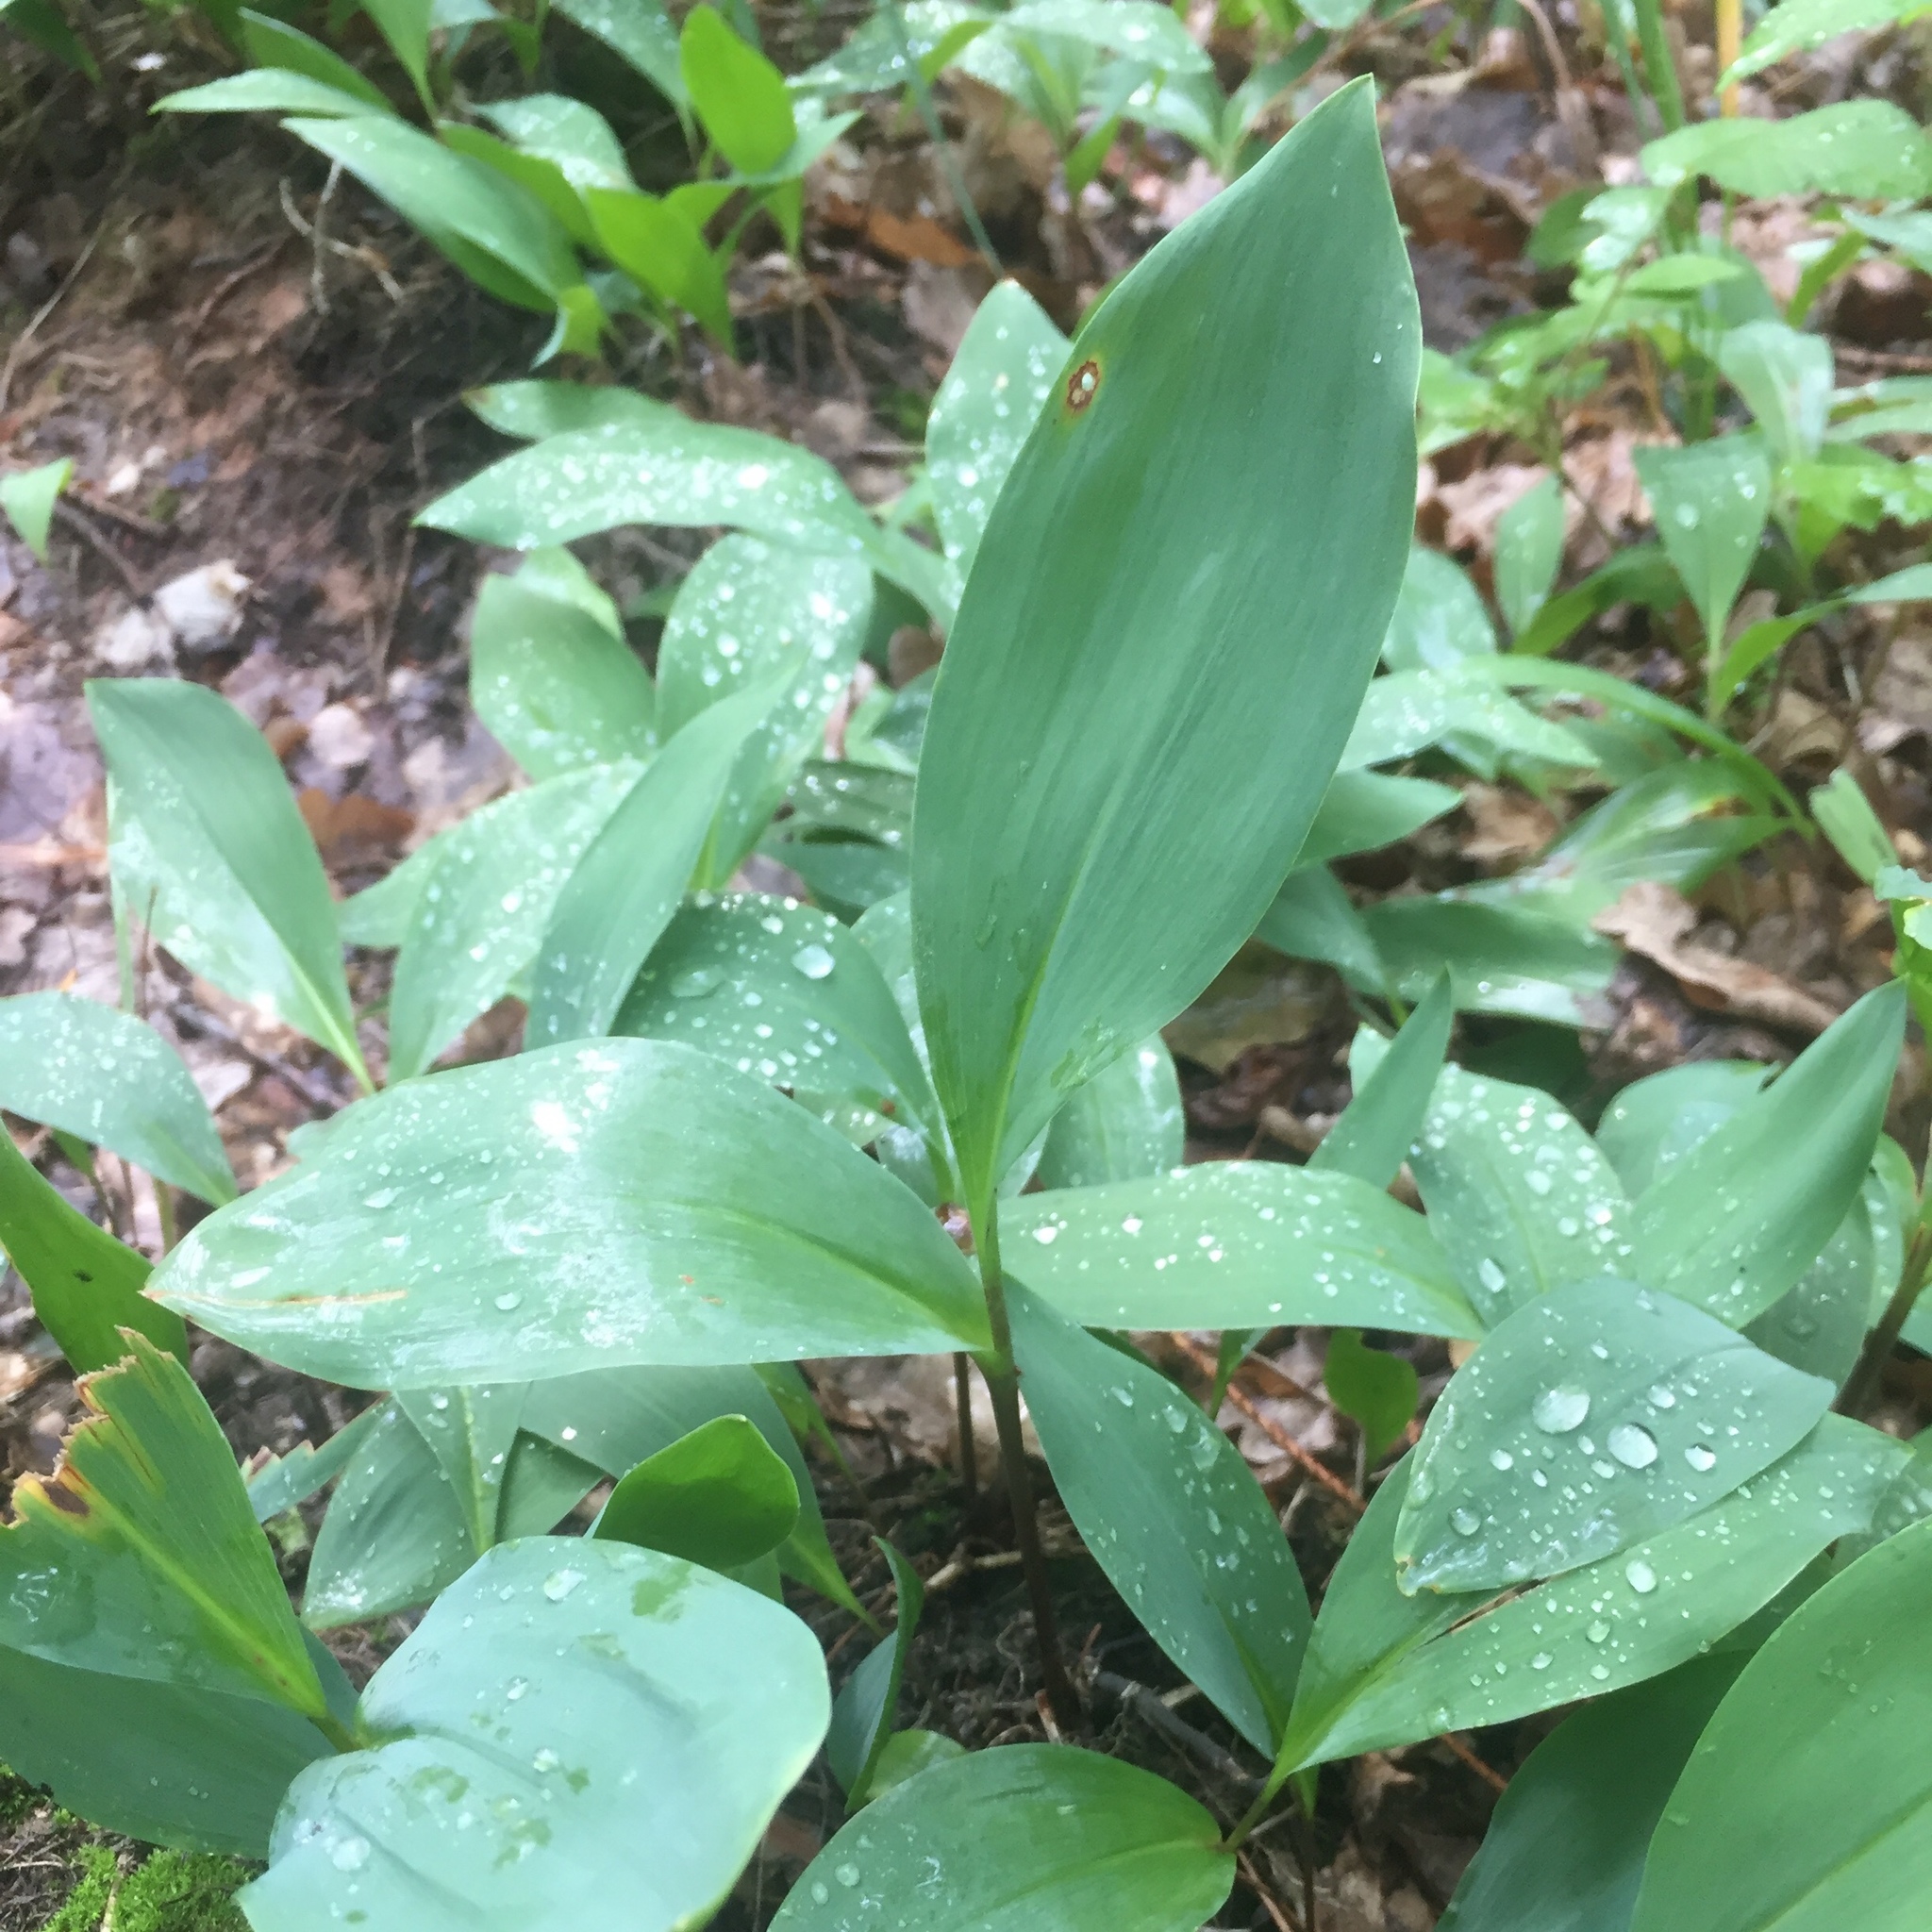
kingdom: Plantae
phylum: Tracheophyta
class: Liliopsida
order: Asparagales
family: Asparagaceae
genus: Convallaria
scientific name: Convallaria majalis
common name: Lily-of-the-valley
